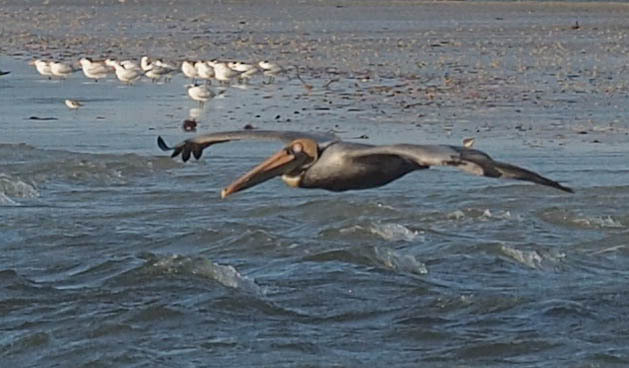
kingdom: Animalia
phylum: Chordata
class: Aves
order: Pelecaniformes
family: Pelecanidae
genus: Pelecanus
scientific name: Pelecanus occidentalis
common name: Brown pelican
